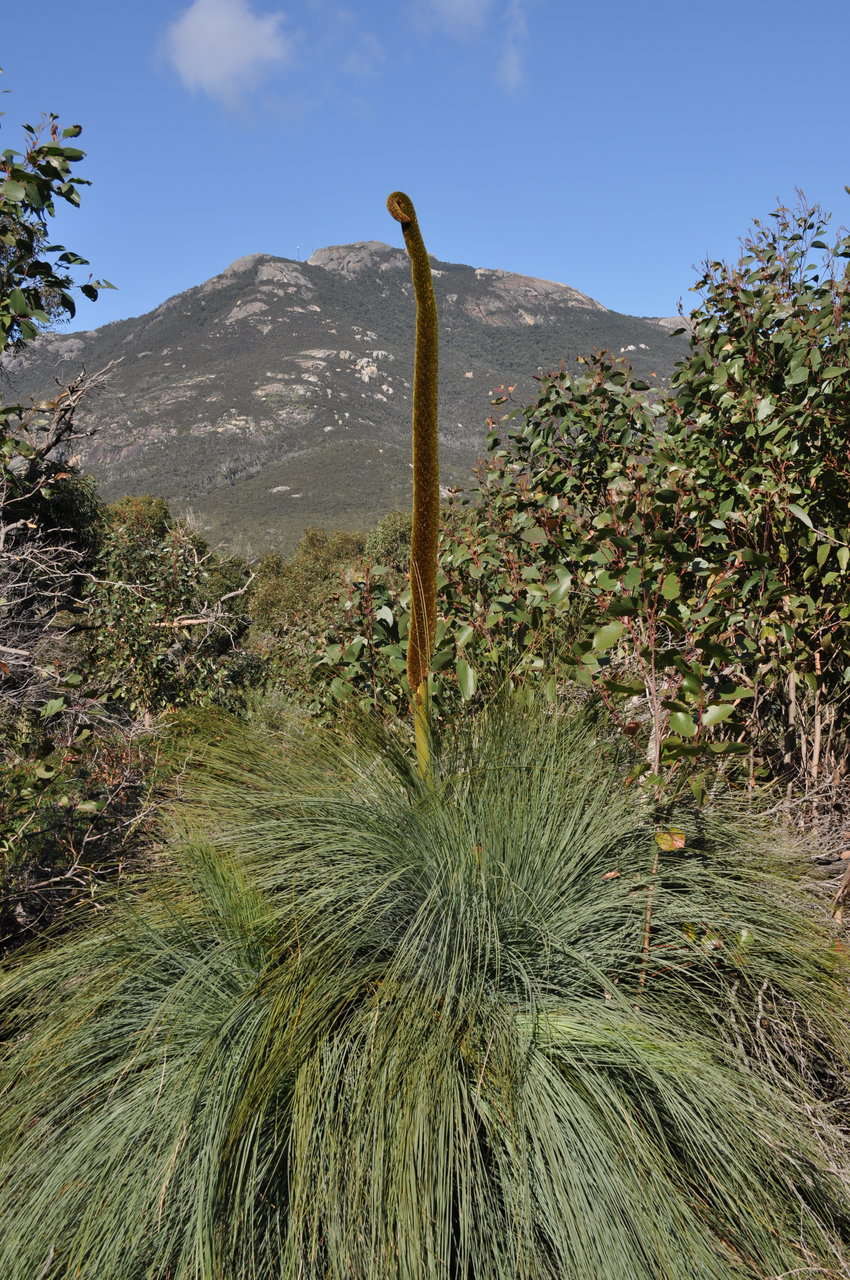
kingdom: Plantae
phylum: Tracheophyta
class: Liliopsida
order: Asparagales
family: Asphodelaceae
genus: Xanthorrhoea
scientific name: Xanthorrhoea australis
